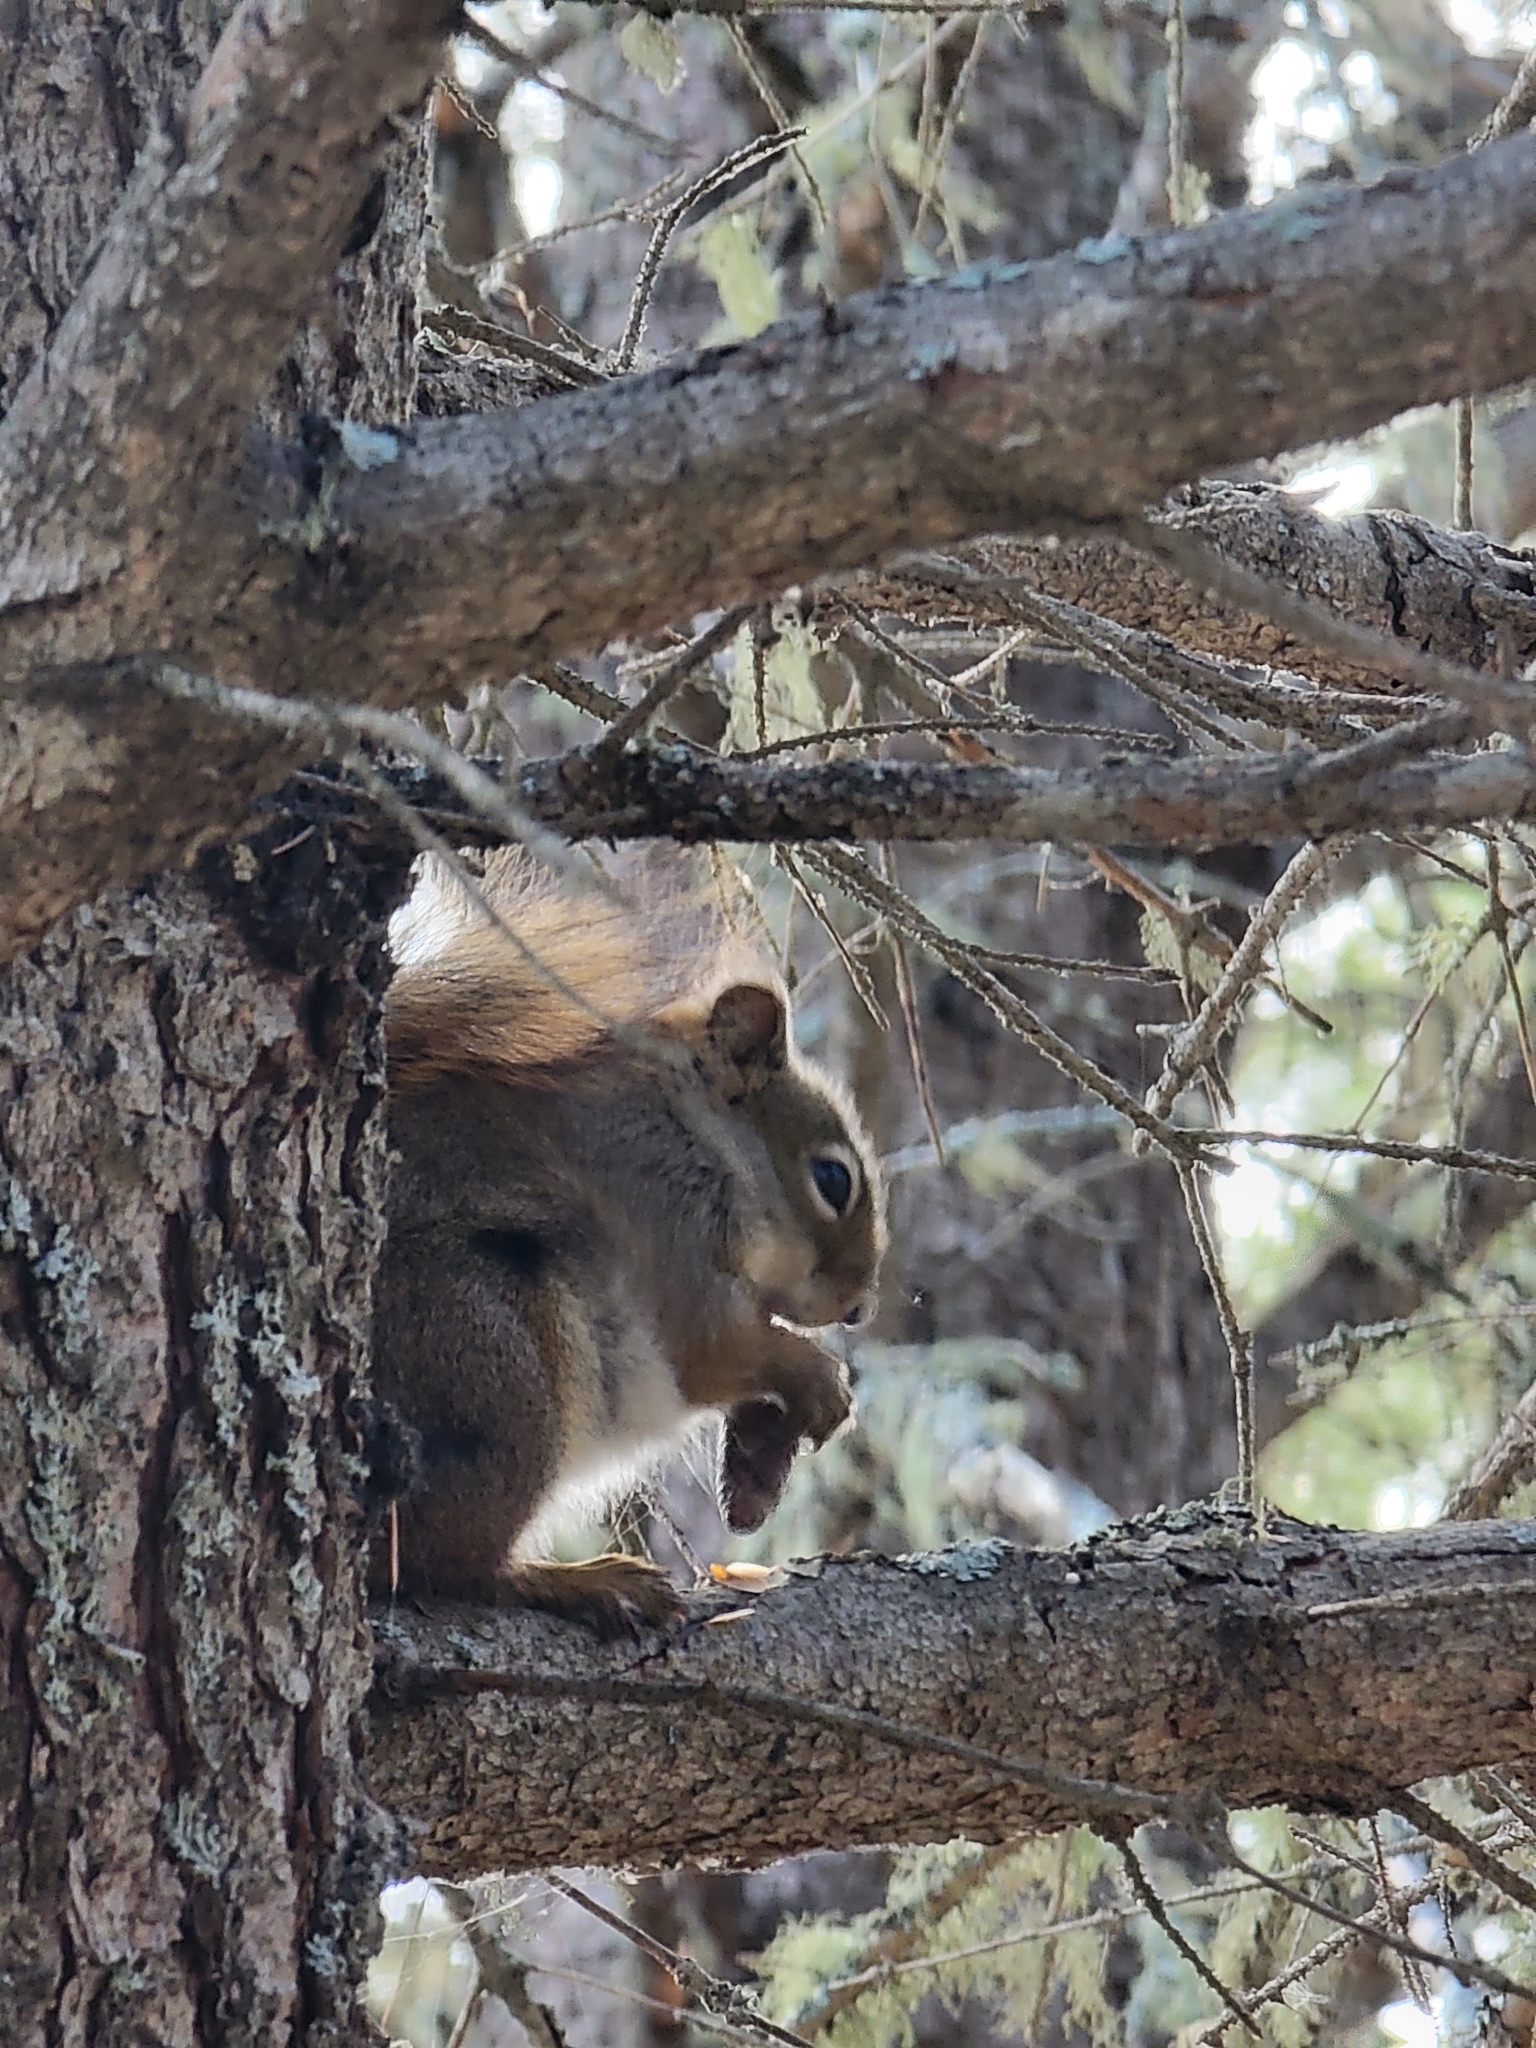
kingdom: Animalia
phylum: Chordata
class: Mammalia
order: Rodentia
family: Sciuridae
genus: Tamiasciurus
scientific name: Tamiasciurus hudsonicus
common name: Red squirrel
